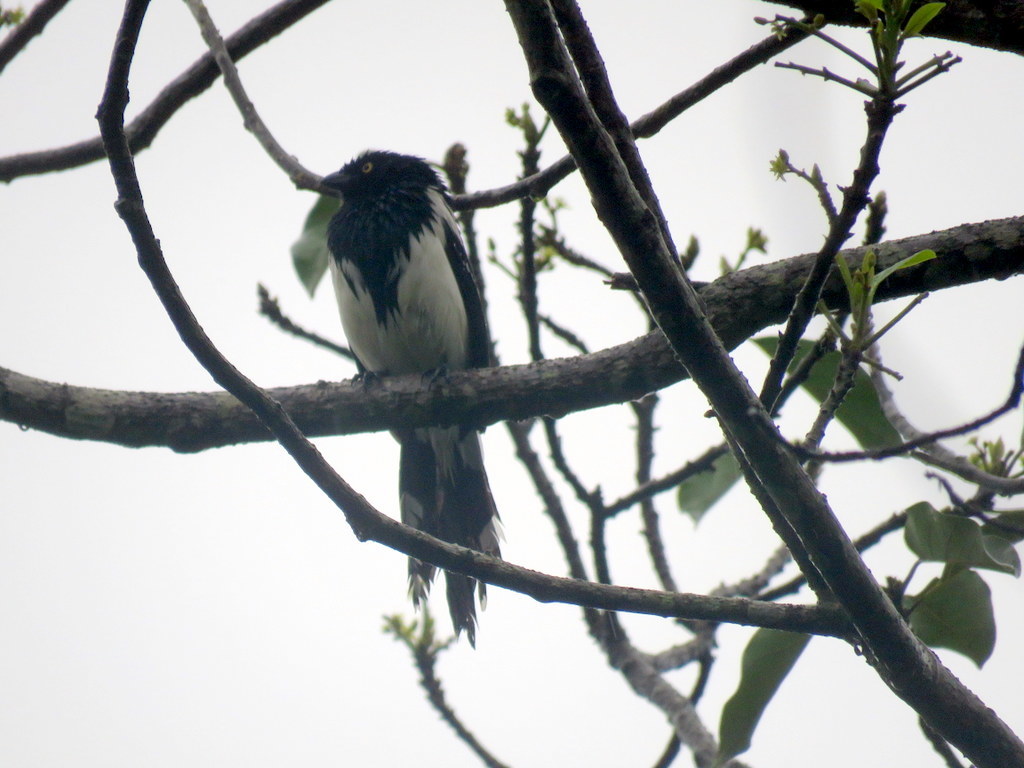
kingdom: Animalia
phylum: Chordata
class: Aves
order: Passeriformes
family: Thraupidae
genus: Cissopis
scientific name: Cissopis leverianus
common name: Magpie tanager
